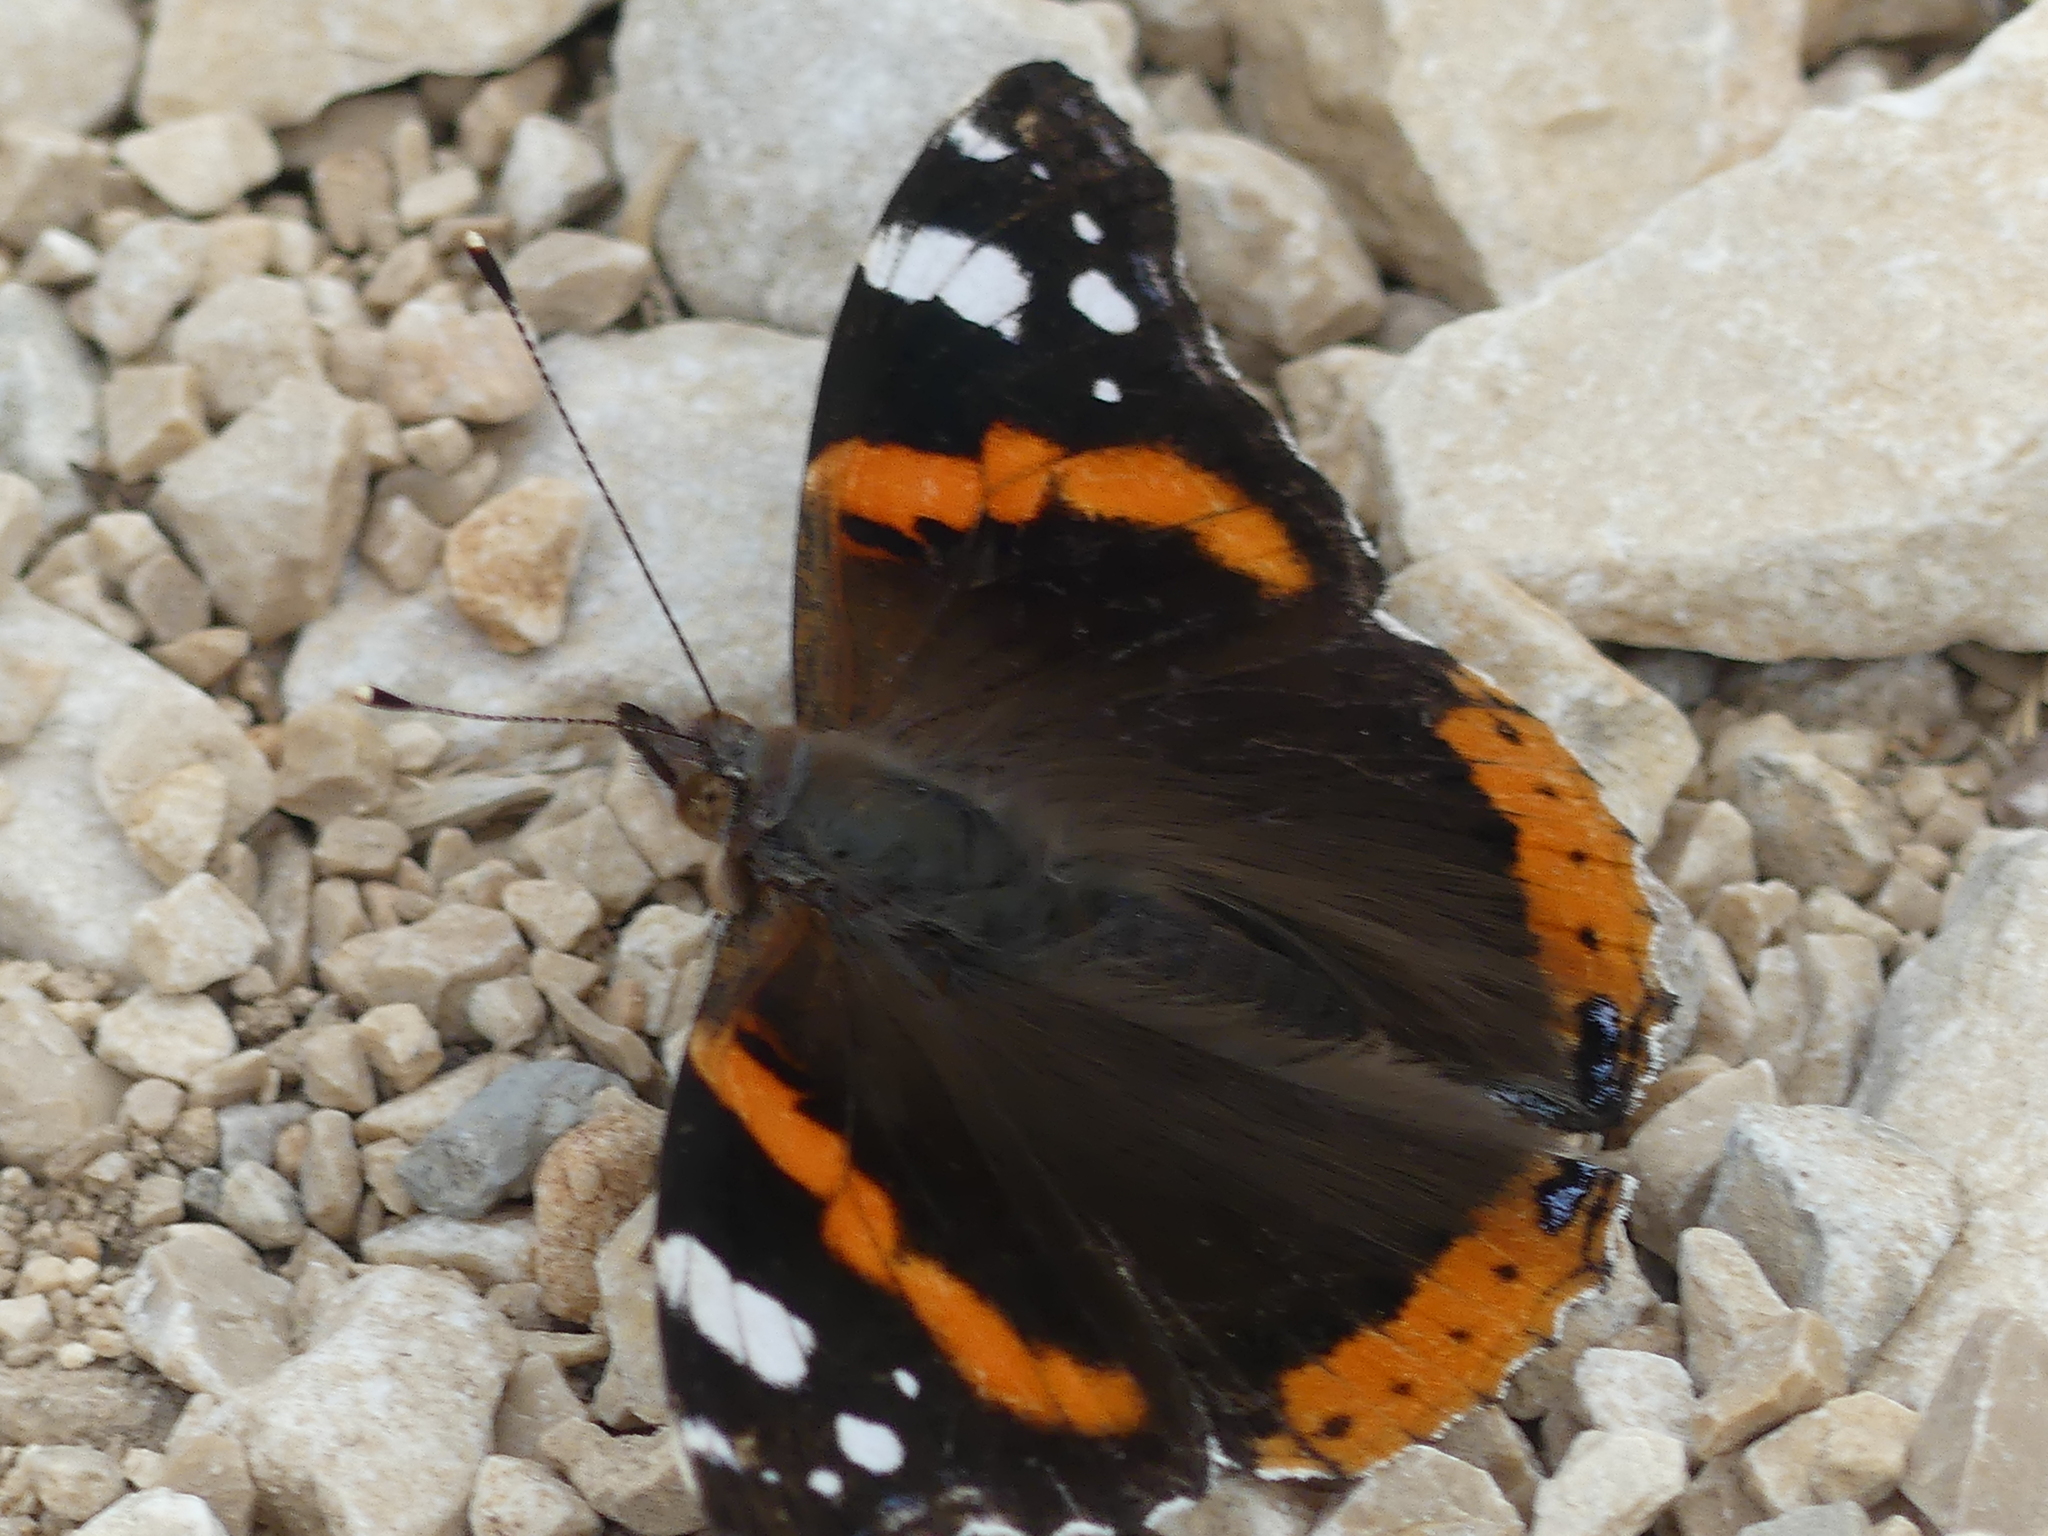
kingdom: Animalia
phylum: Arthropoda
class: Insecta
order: Lepidoptera
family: Nymphalidae
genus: Vanessa
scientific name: Vanessa atalanta
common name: Red admiral
